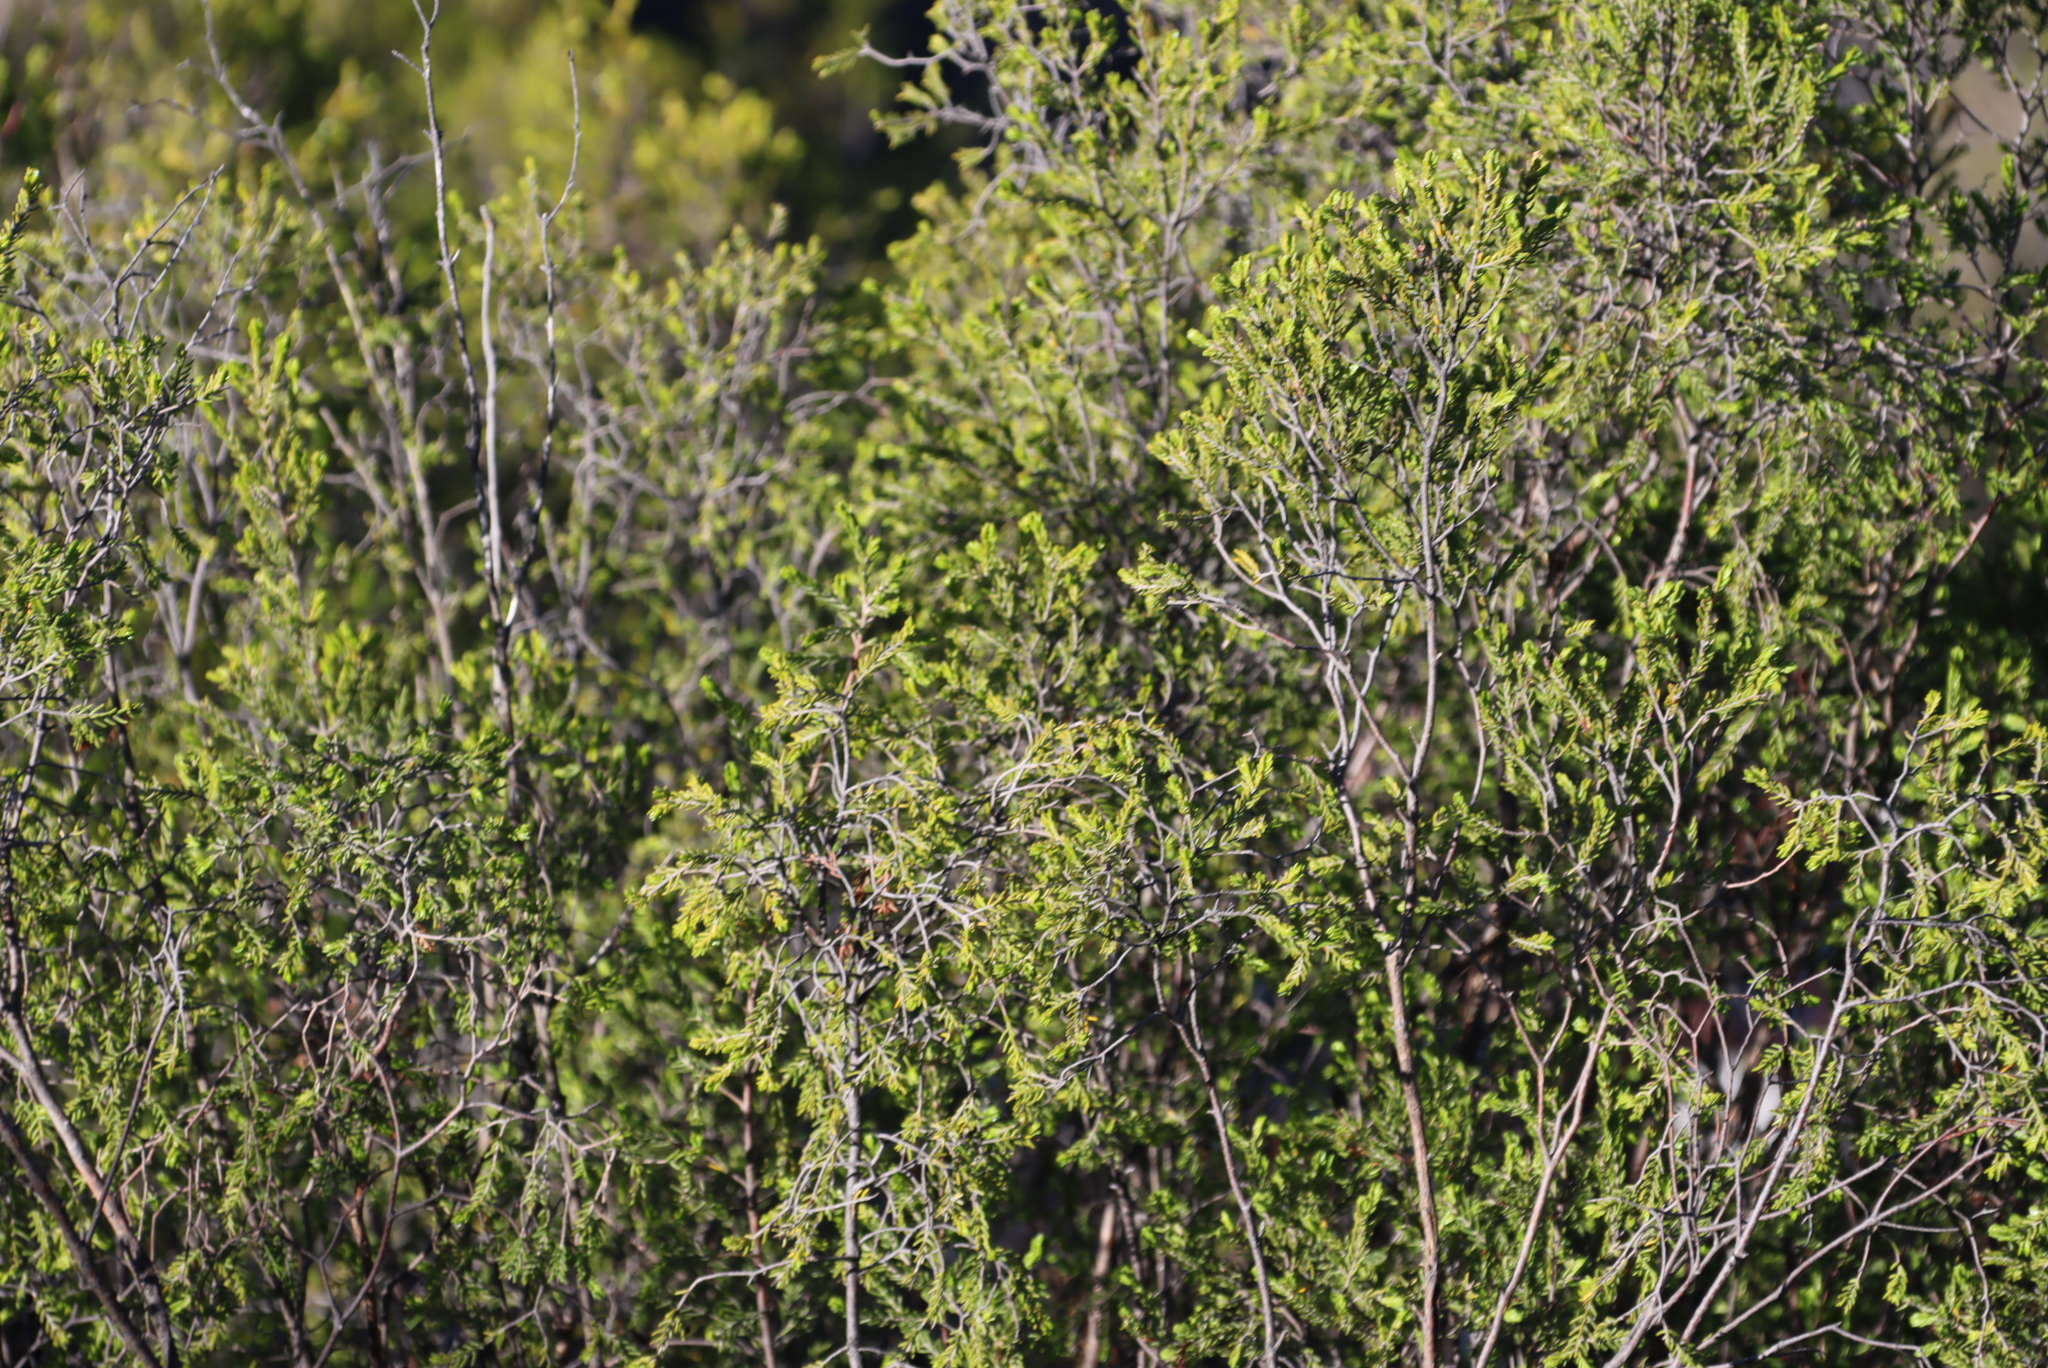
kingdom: Plantae
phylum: Tracheophyta
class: Magnoliopsida
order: Malvales
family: Thymelaeaceae
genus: Passerina
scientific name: Passerina obtusifolia
